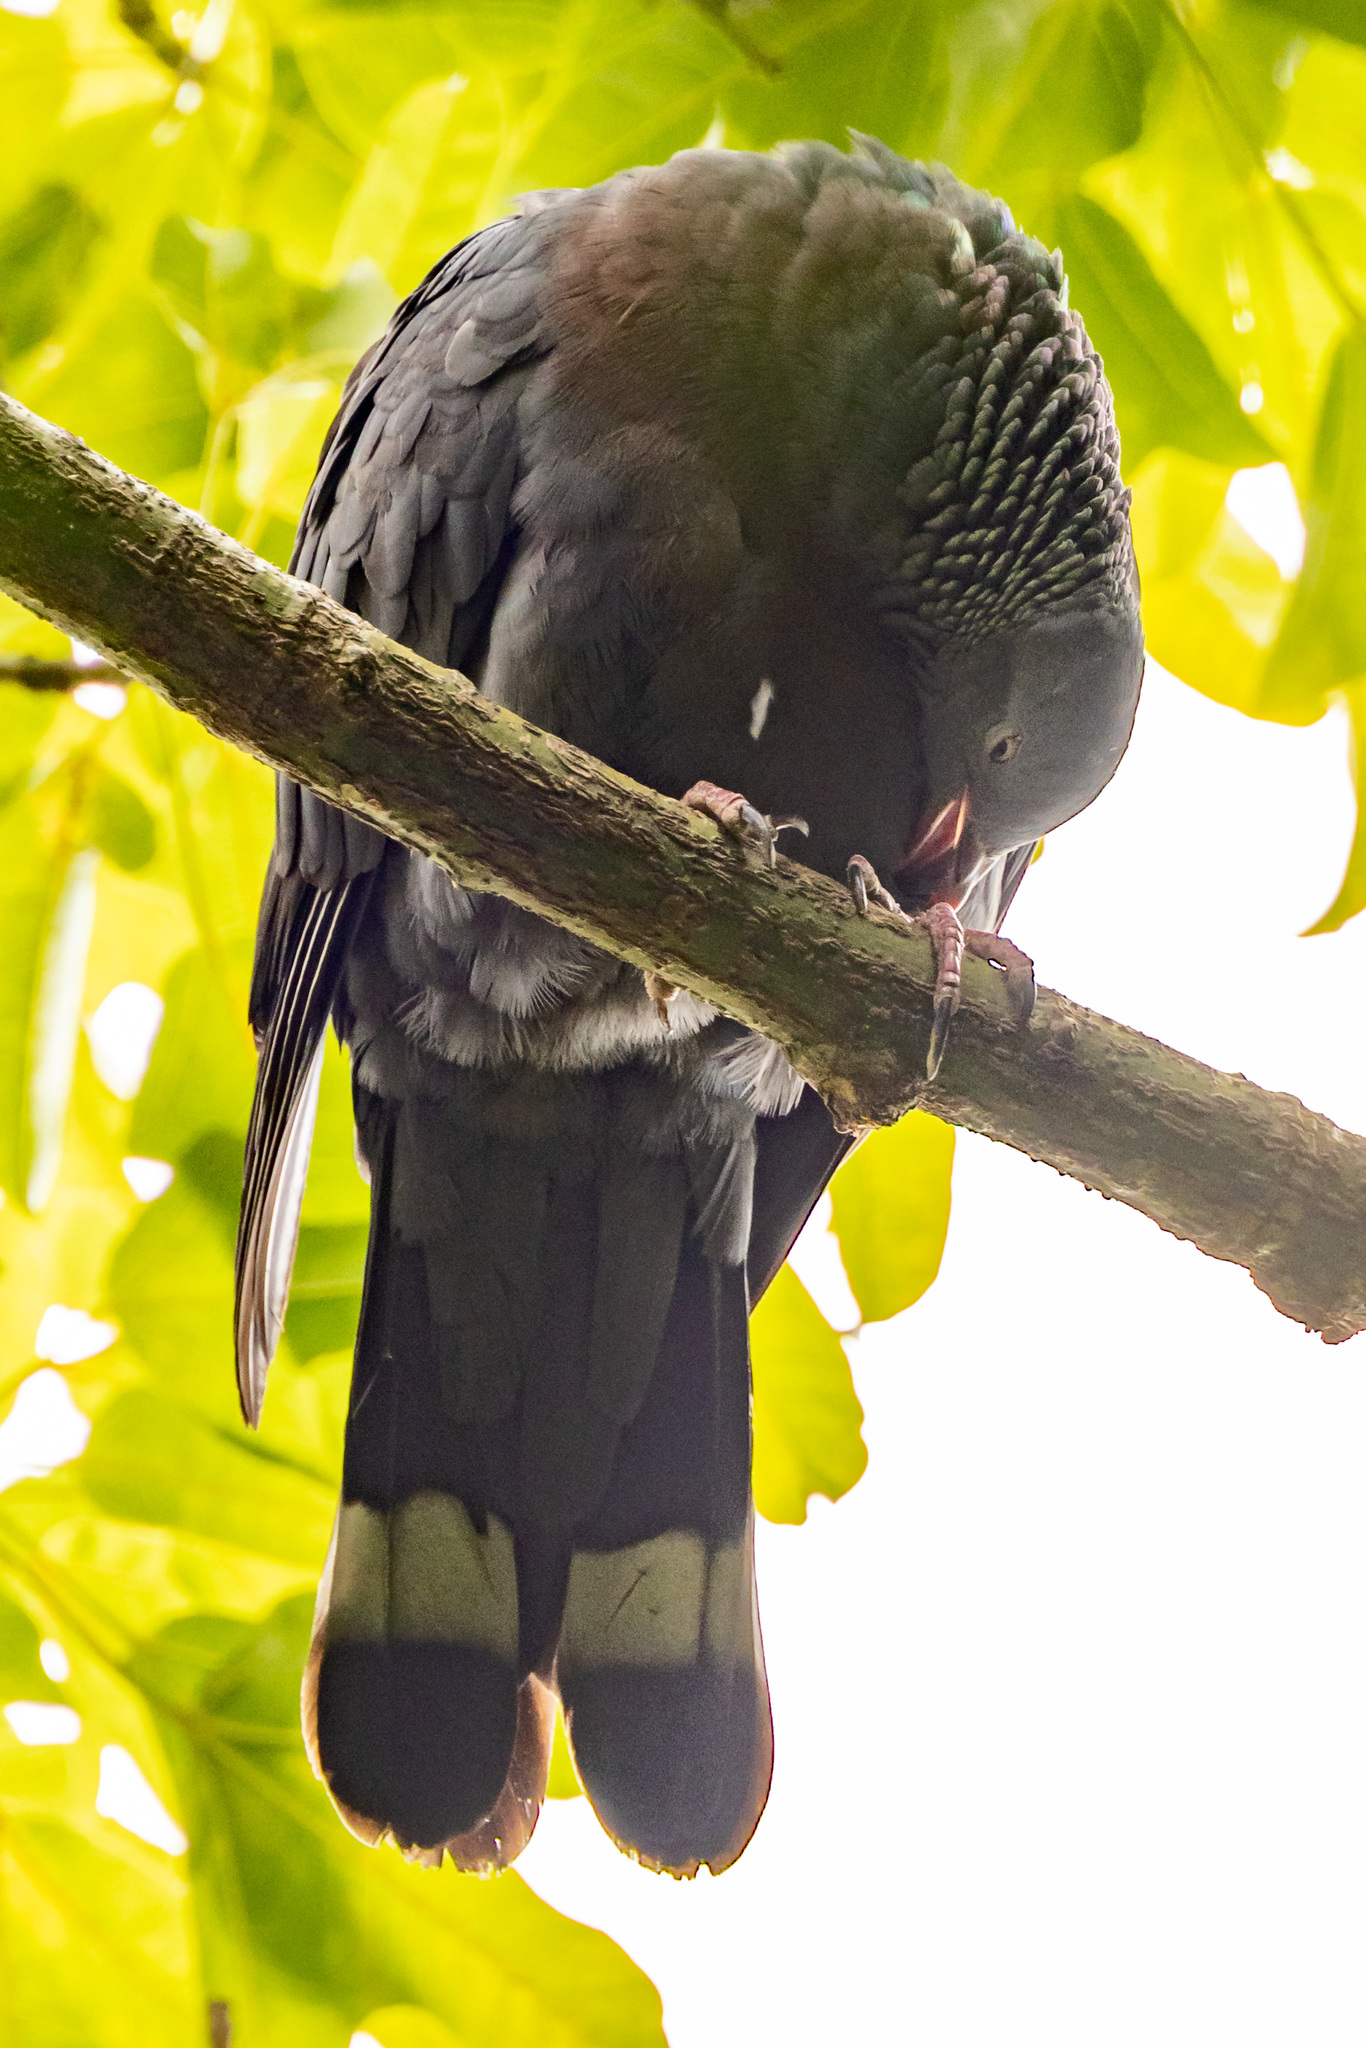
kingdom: Animalia
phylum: Chordata
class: Aves
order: Columbiformes
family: Columbidae
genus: Columba
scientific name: Columba trocaz
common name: Trocaz pigeon
